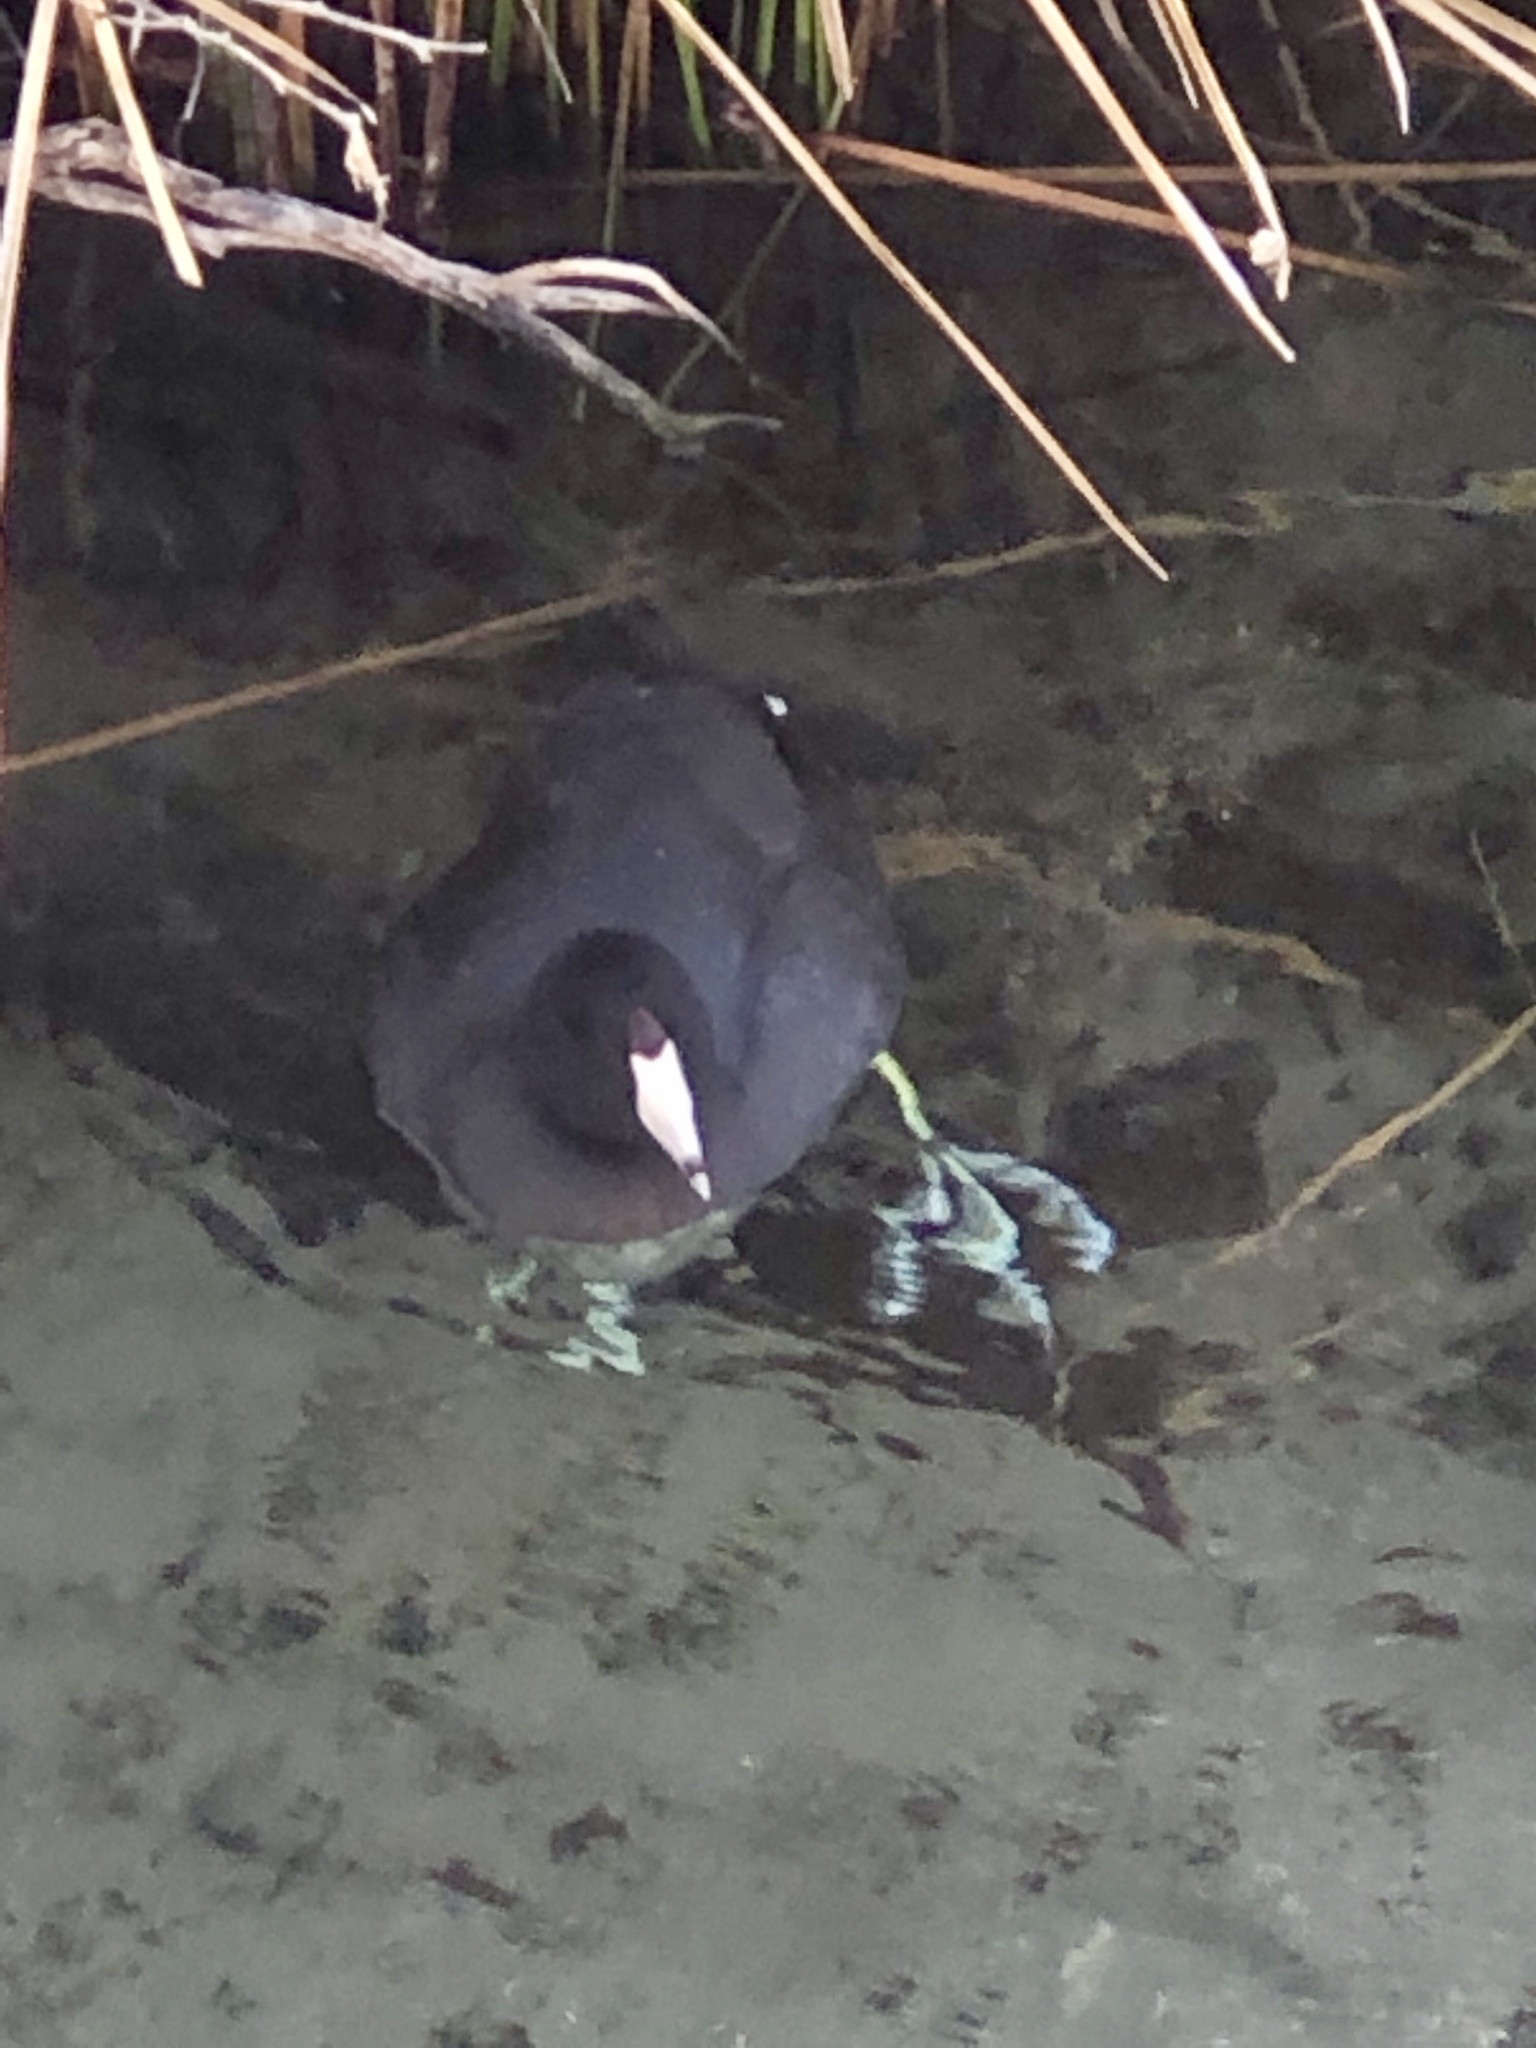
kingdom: Animalia
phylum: Chordata
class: Aves
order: Gruiformes
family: Rallidae
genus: Fulica
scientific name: Fulica americana
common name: American coot
